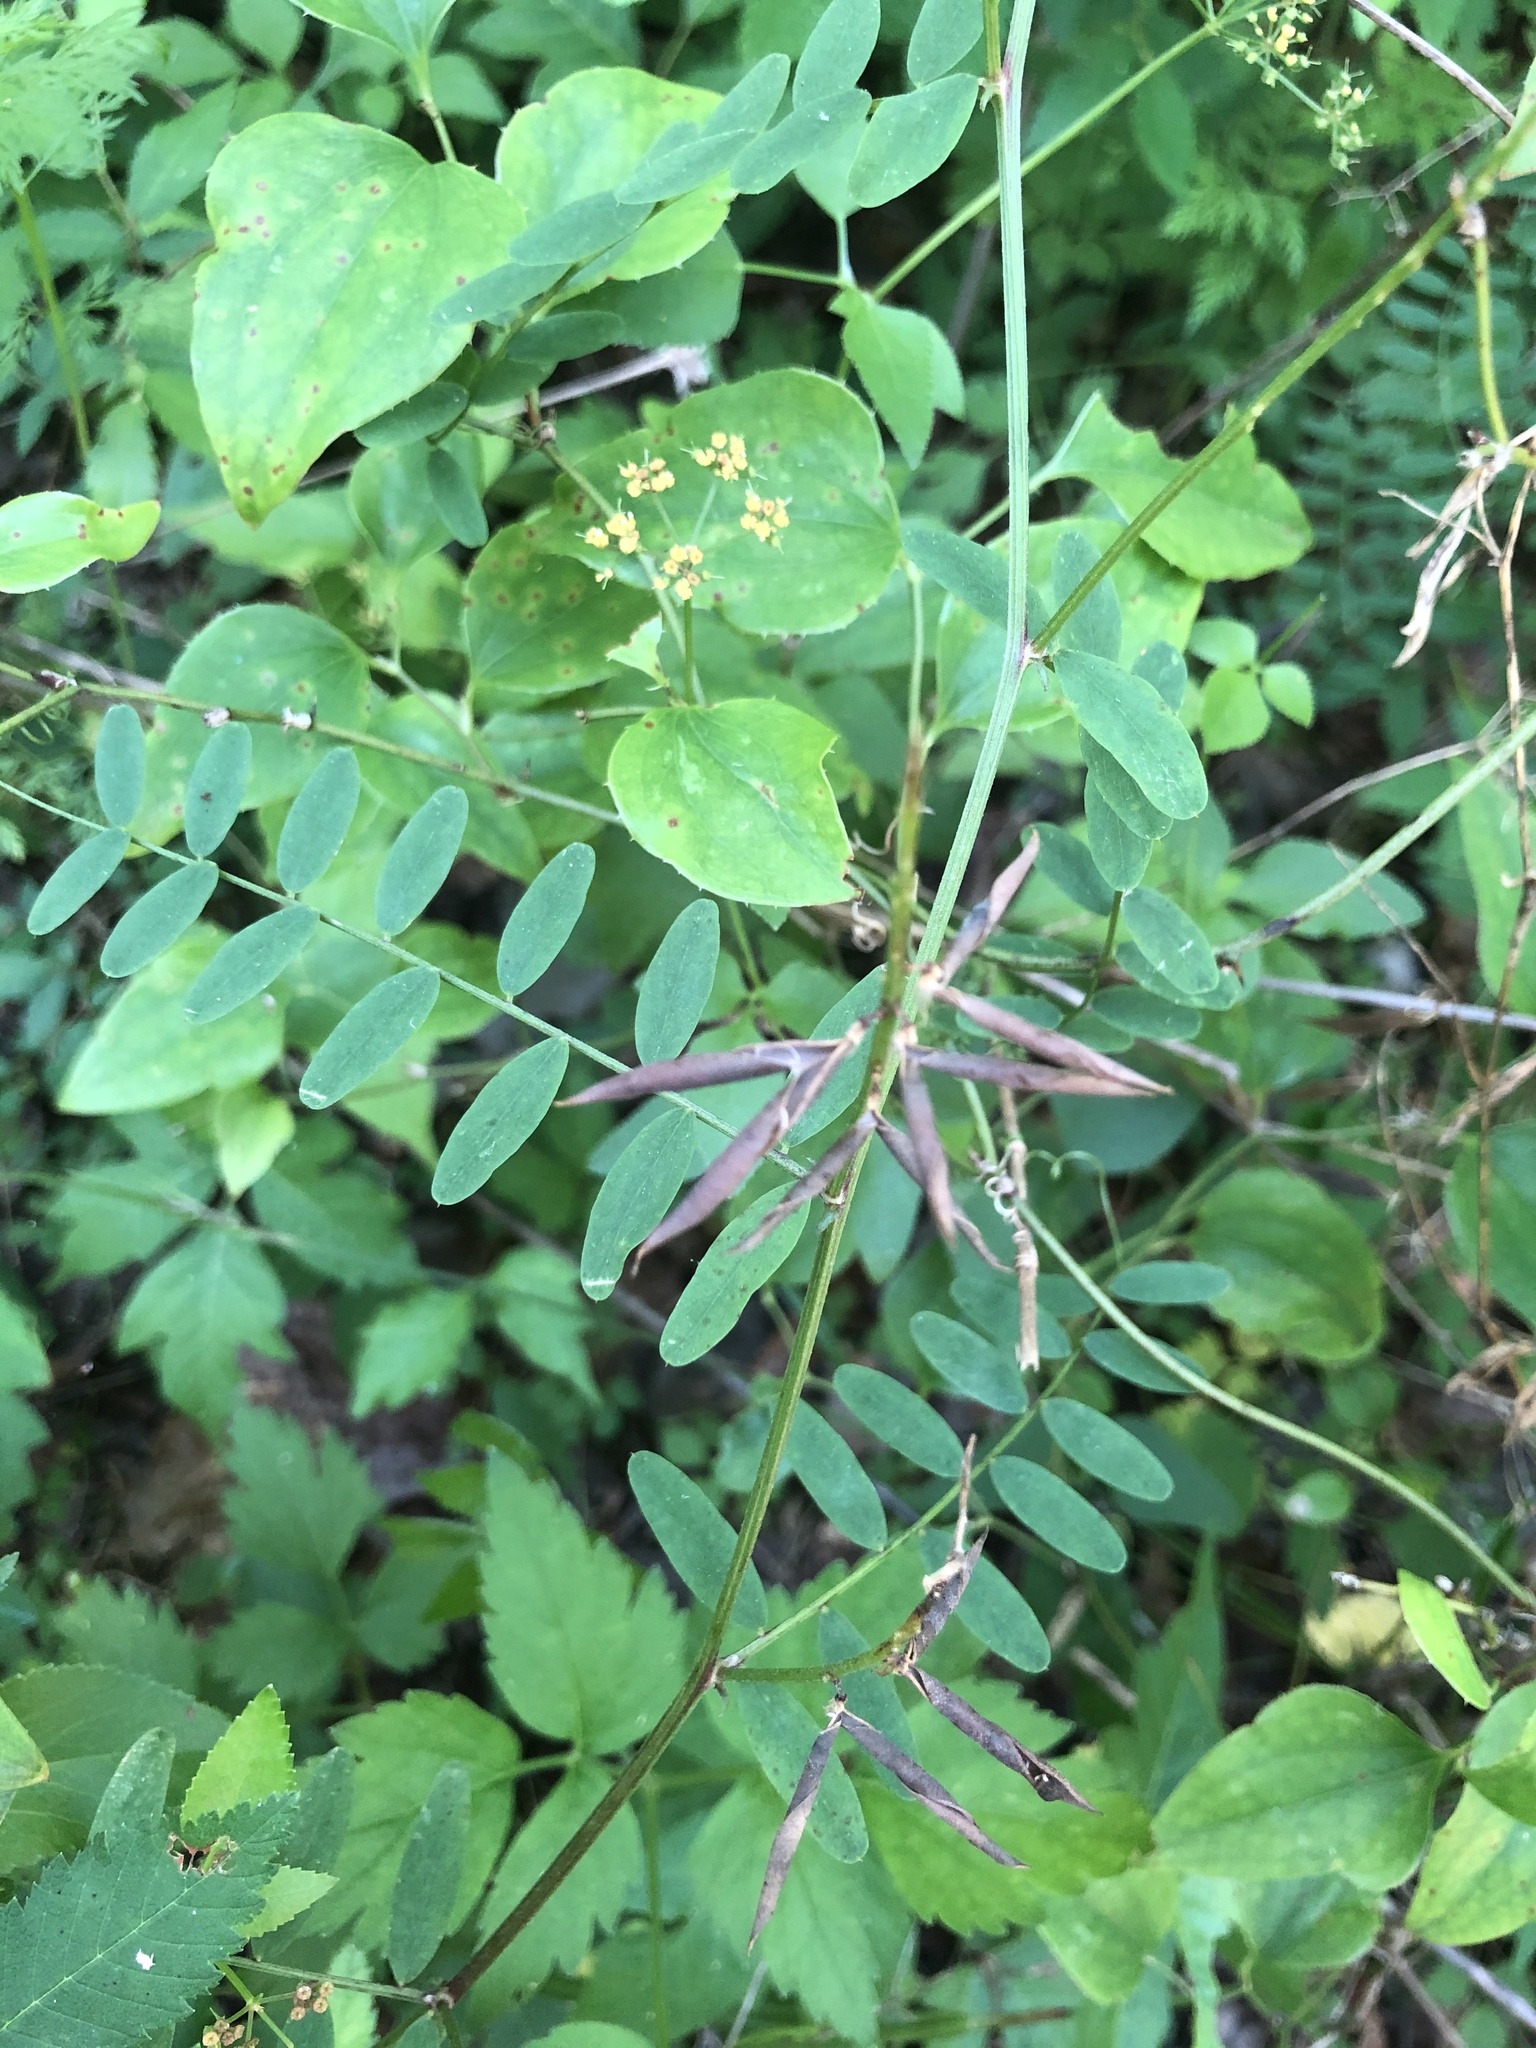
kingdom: Plantae
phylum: Tracheophyta
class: Magnoliopsida
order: Fabales
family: Fabaceae
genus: Vicia
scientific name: Vicia caroliniana
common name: Carolina vetch
